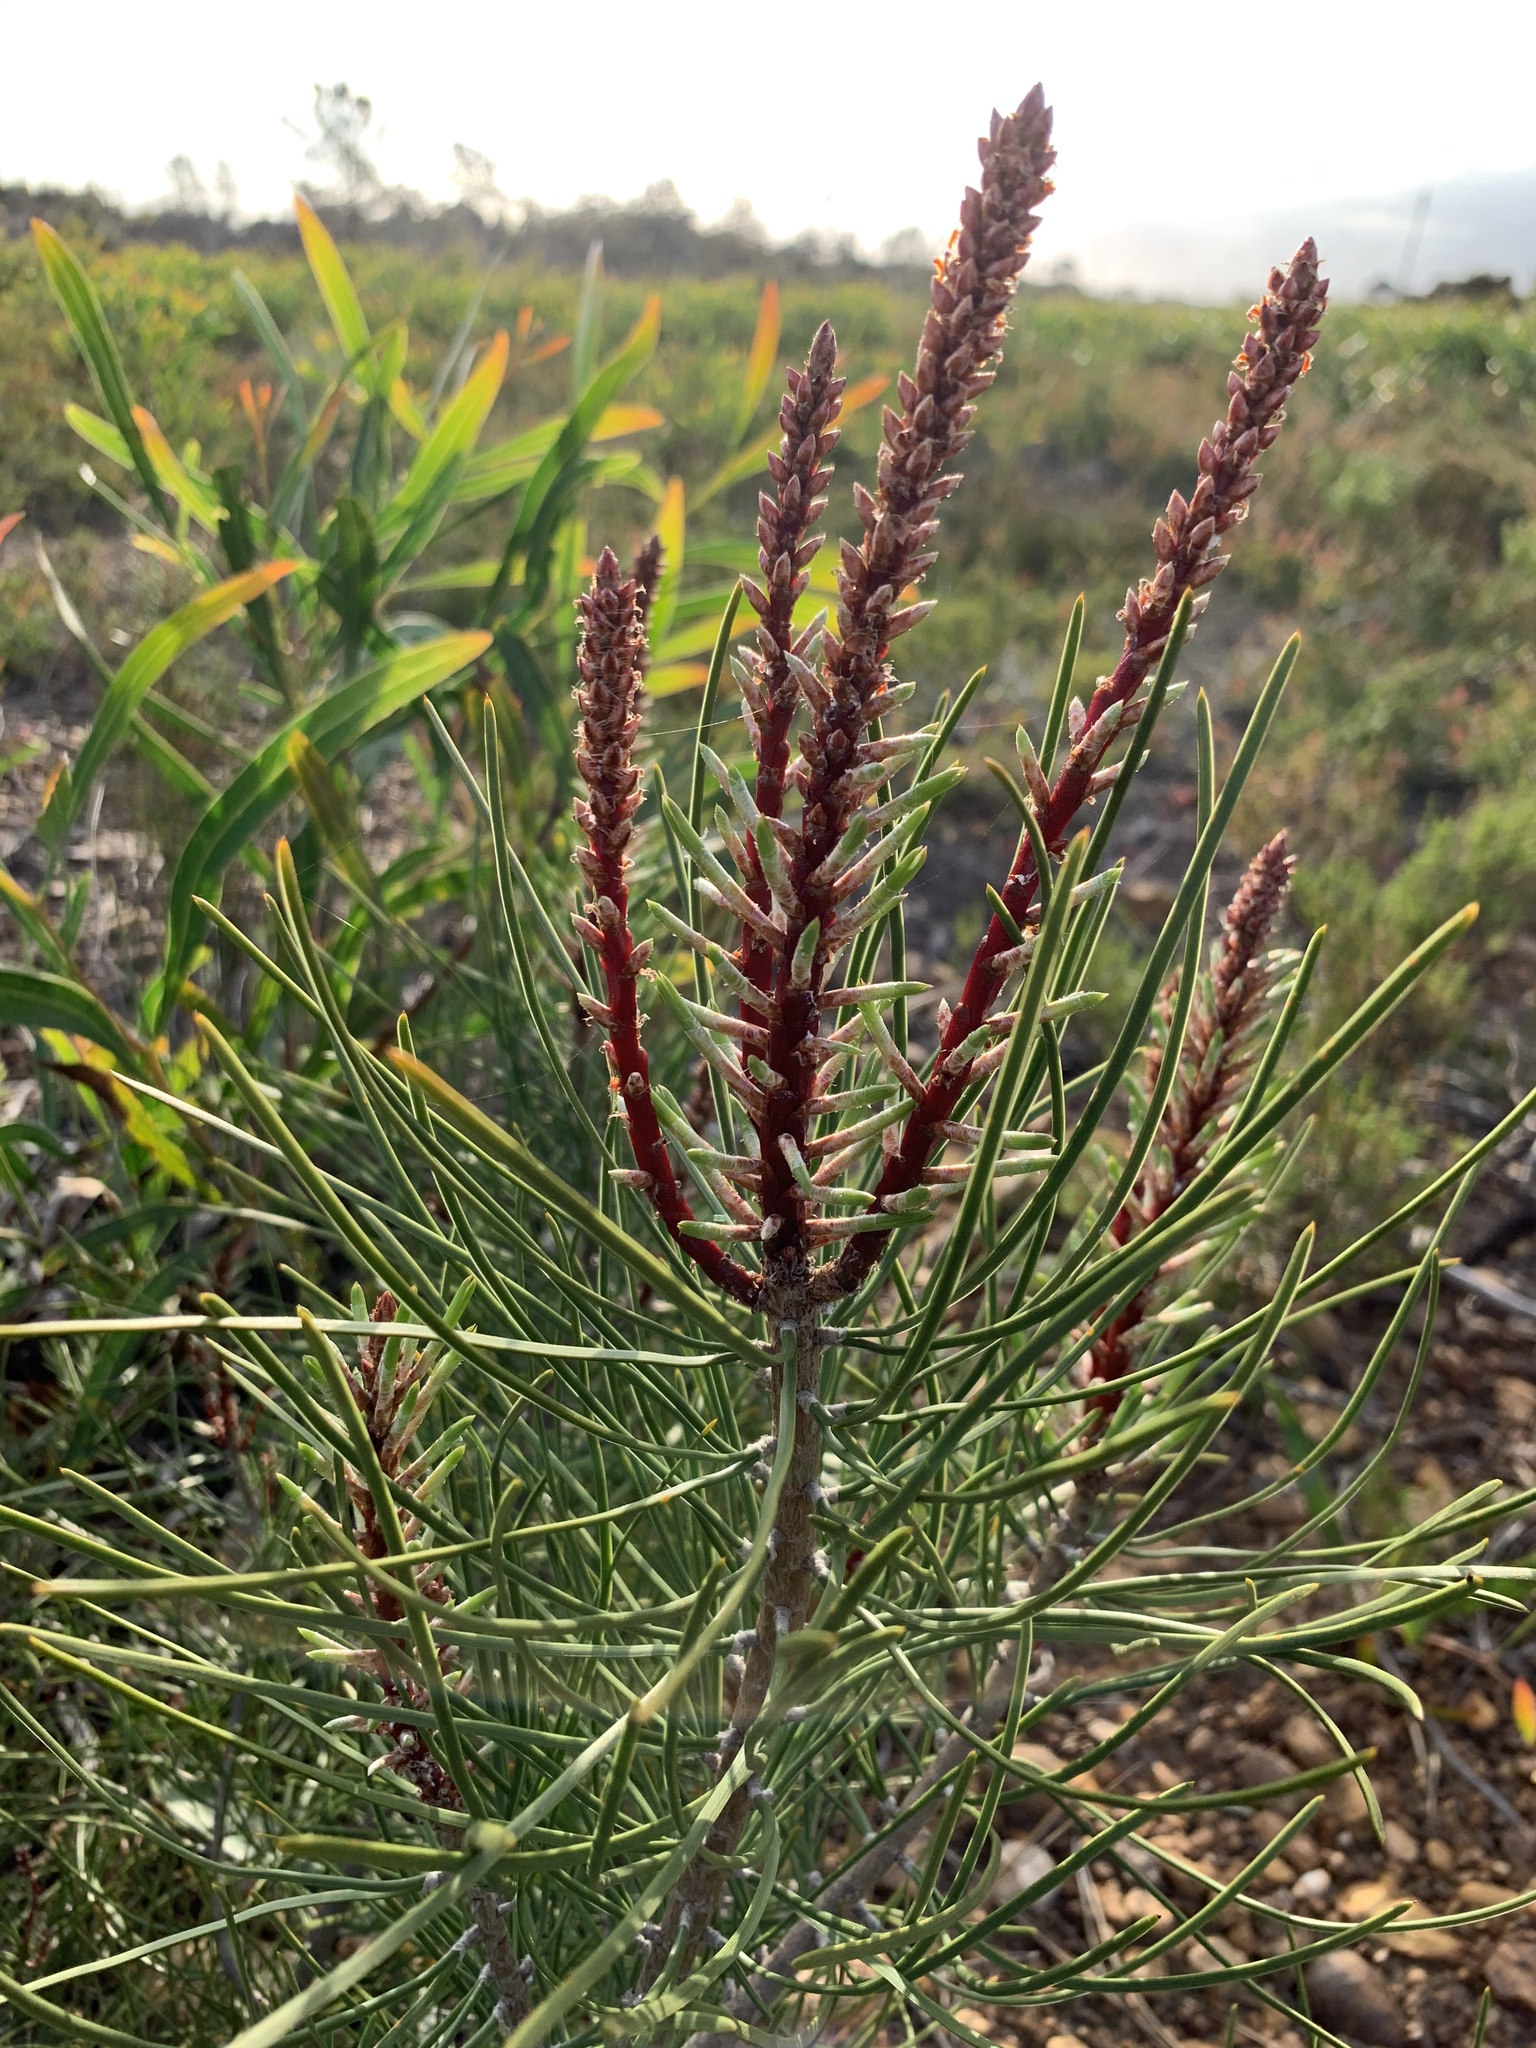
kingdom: Plantae
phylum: Tracheophyta
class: Pinopsida
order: Pinales
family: Pinaceae
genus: Pinus
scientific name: Pinus pinaster
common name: Maritime pine
